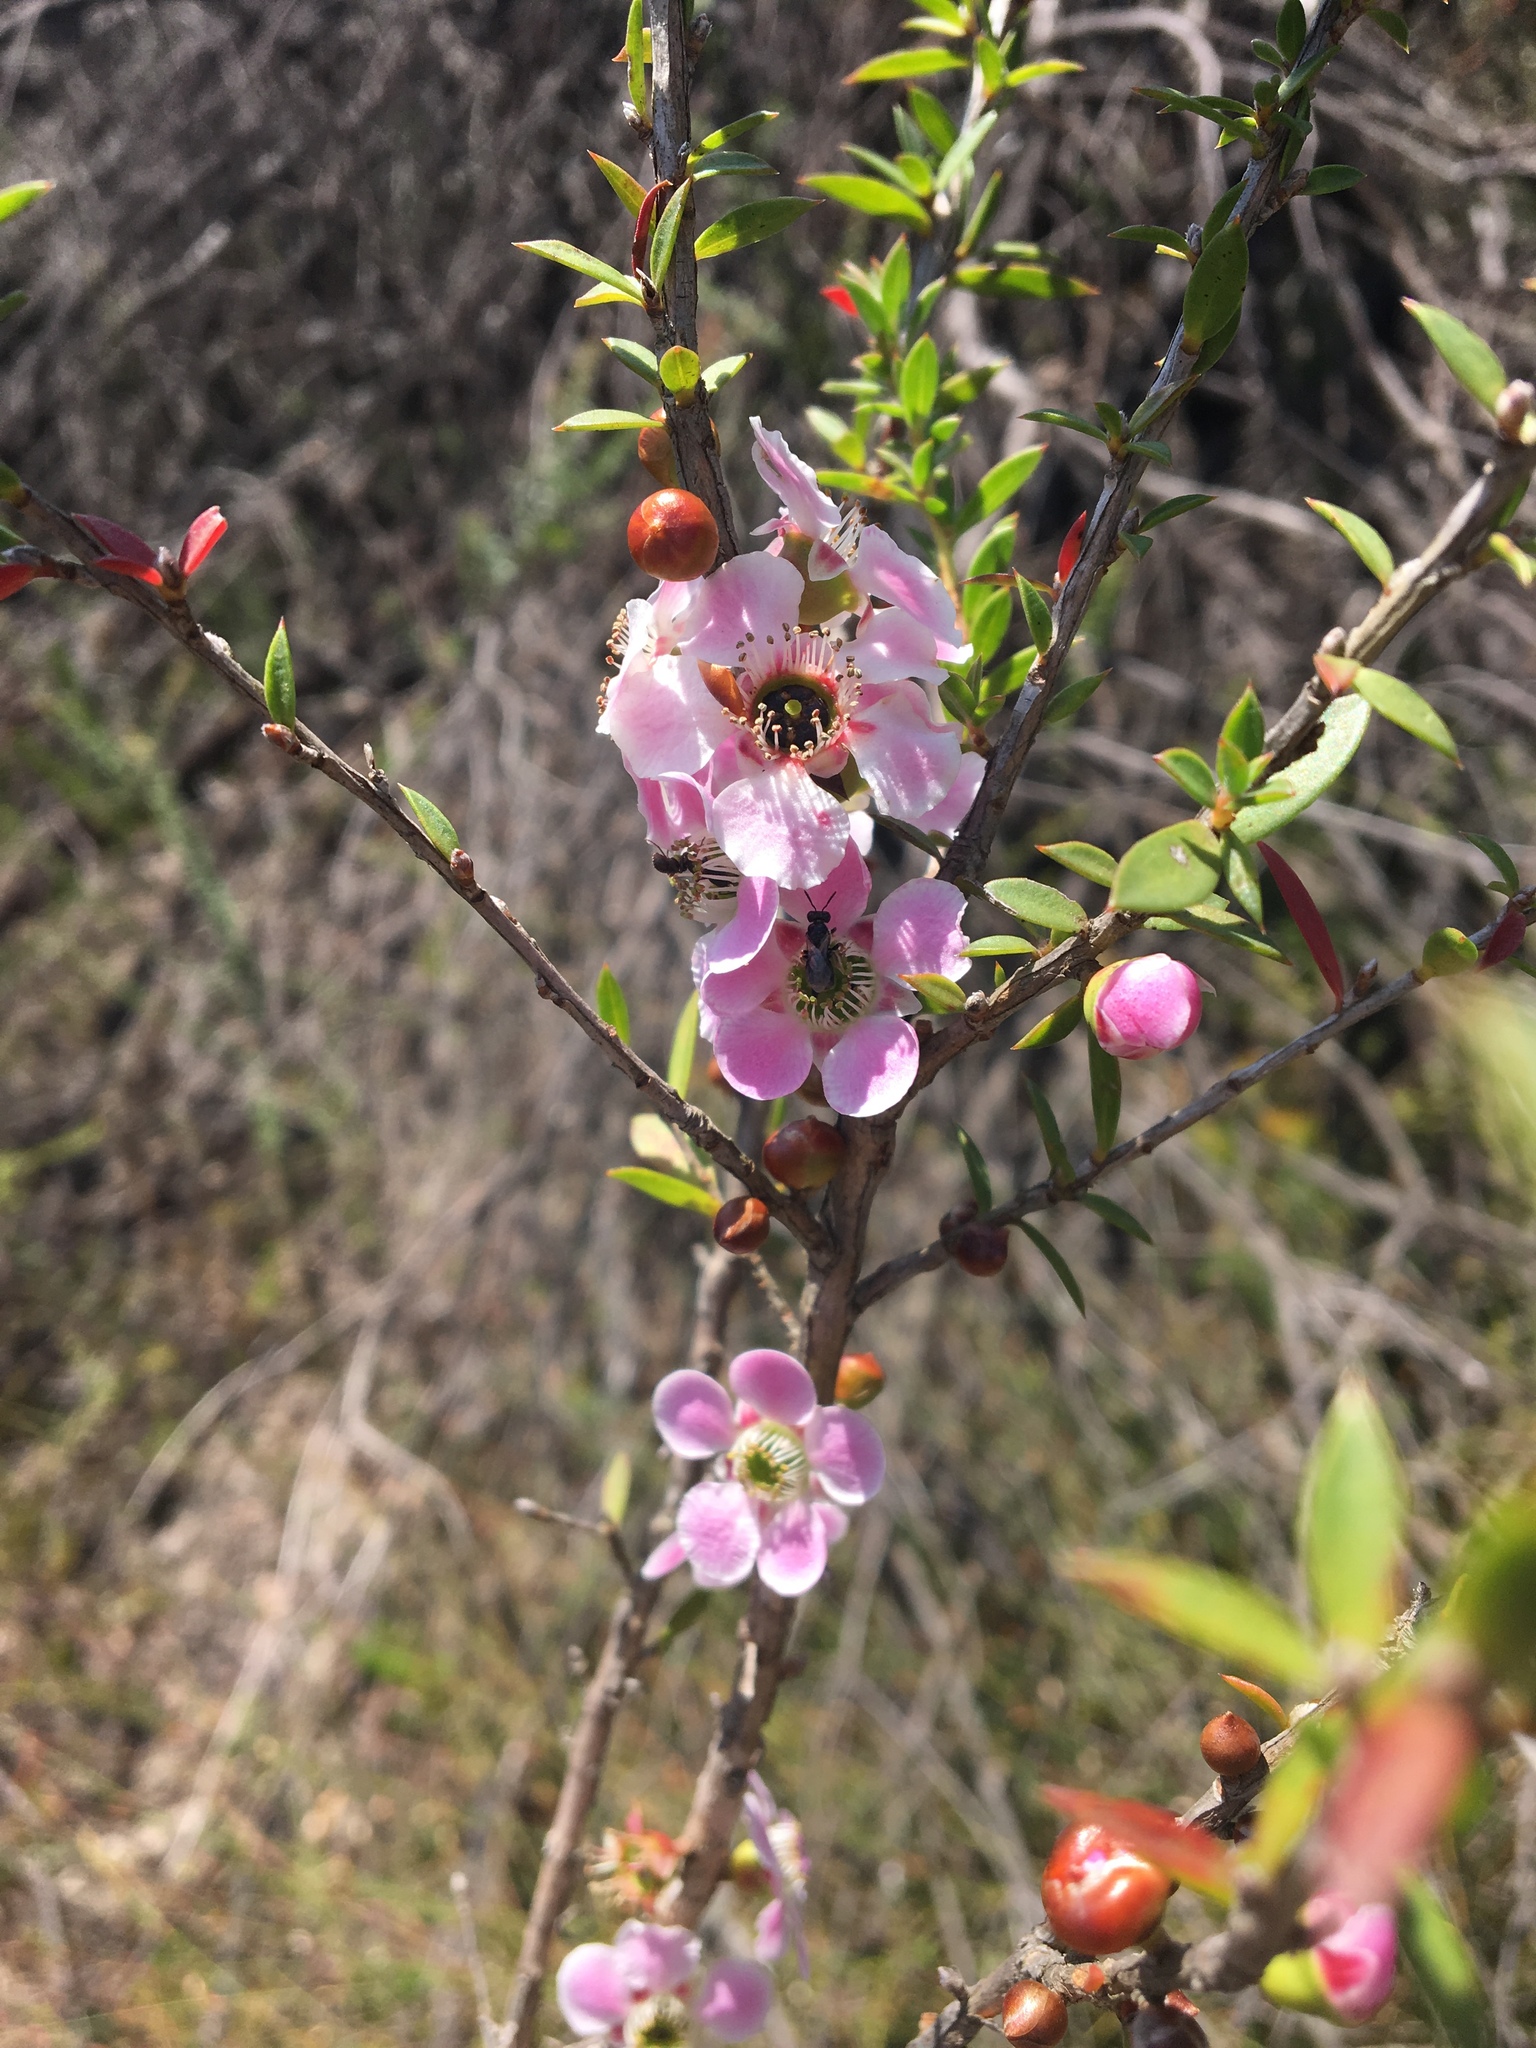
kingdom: Plantae
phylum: Tracheophyta
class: Magnoliopsida
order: Myrtales
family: Myrtaceae
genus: Leptospermum
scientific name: Leptospermum squarrosum
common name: Peach-blossom teatree
